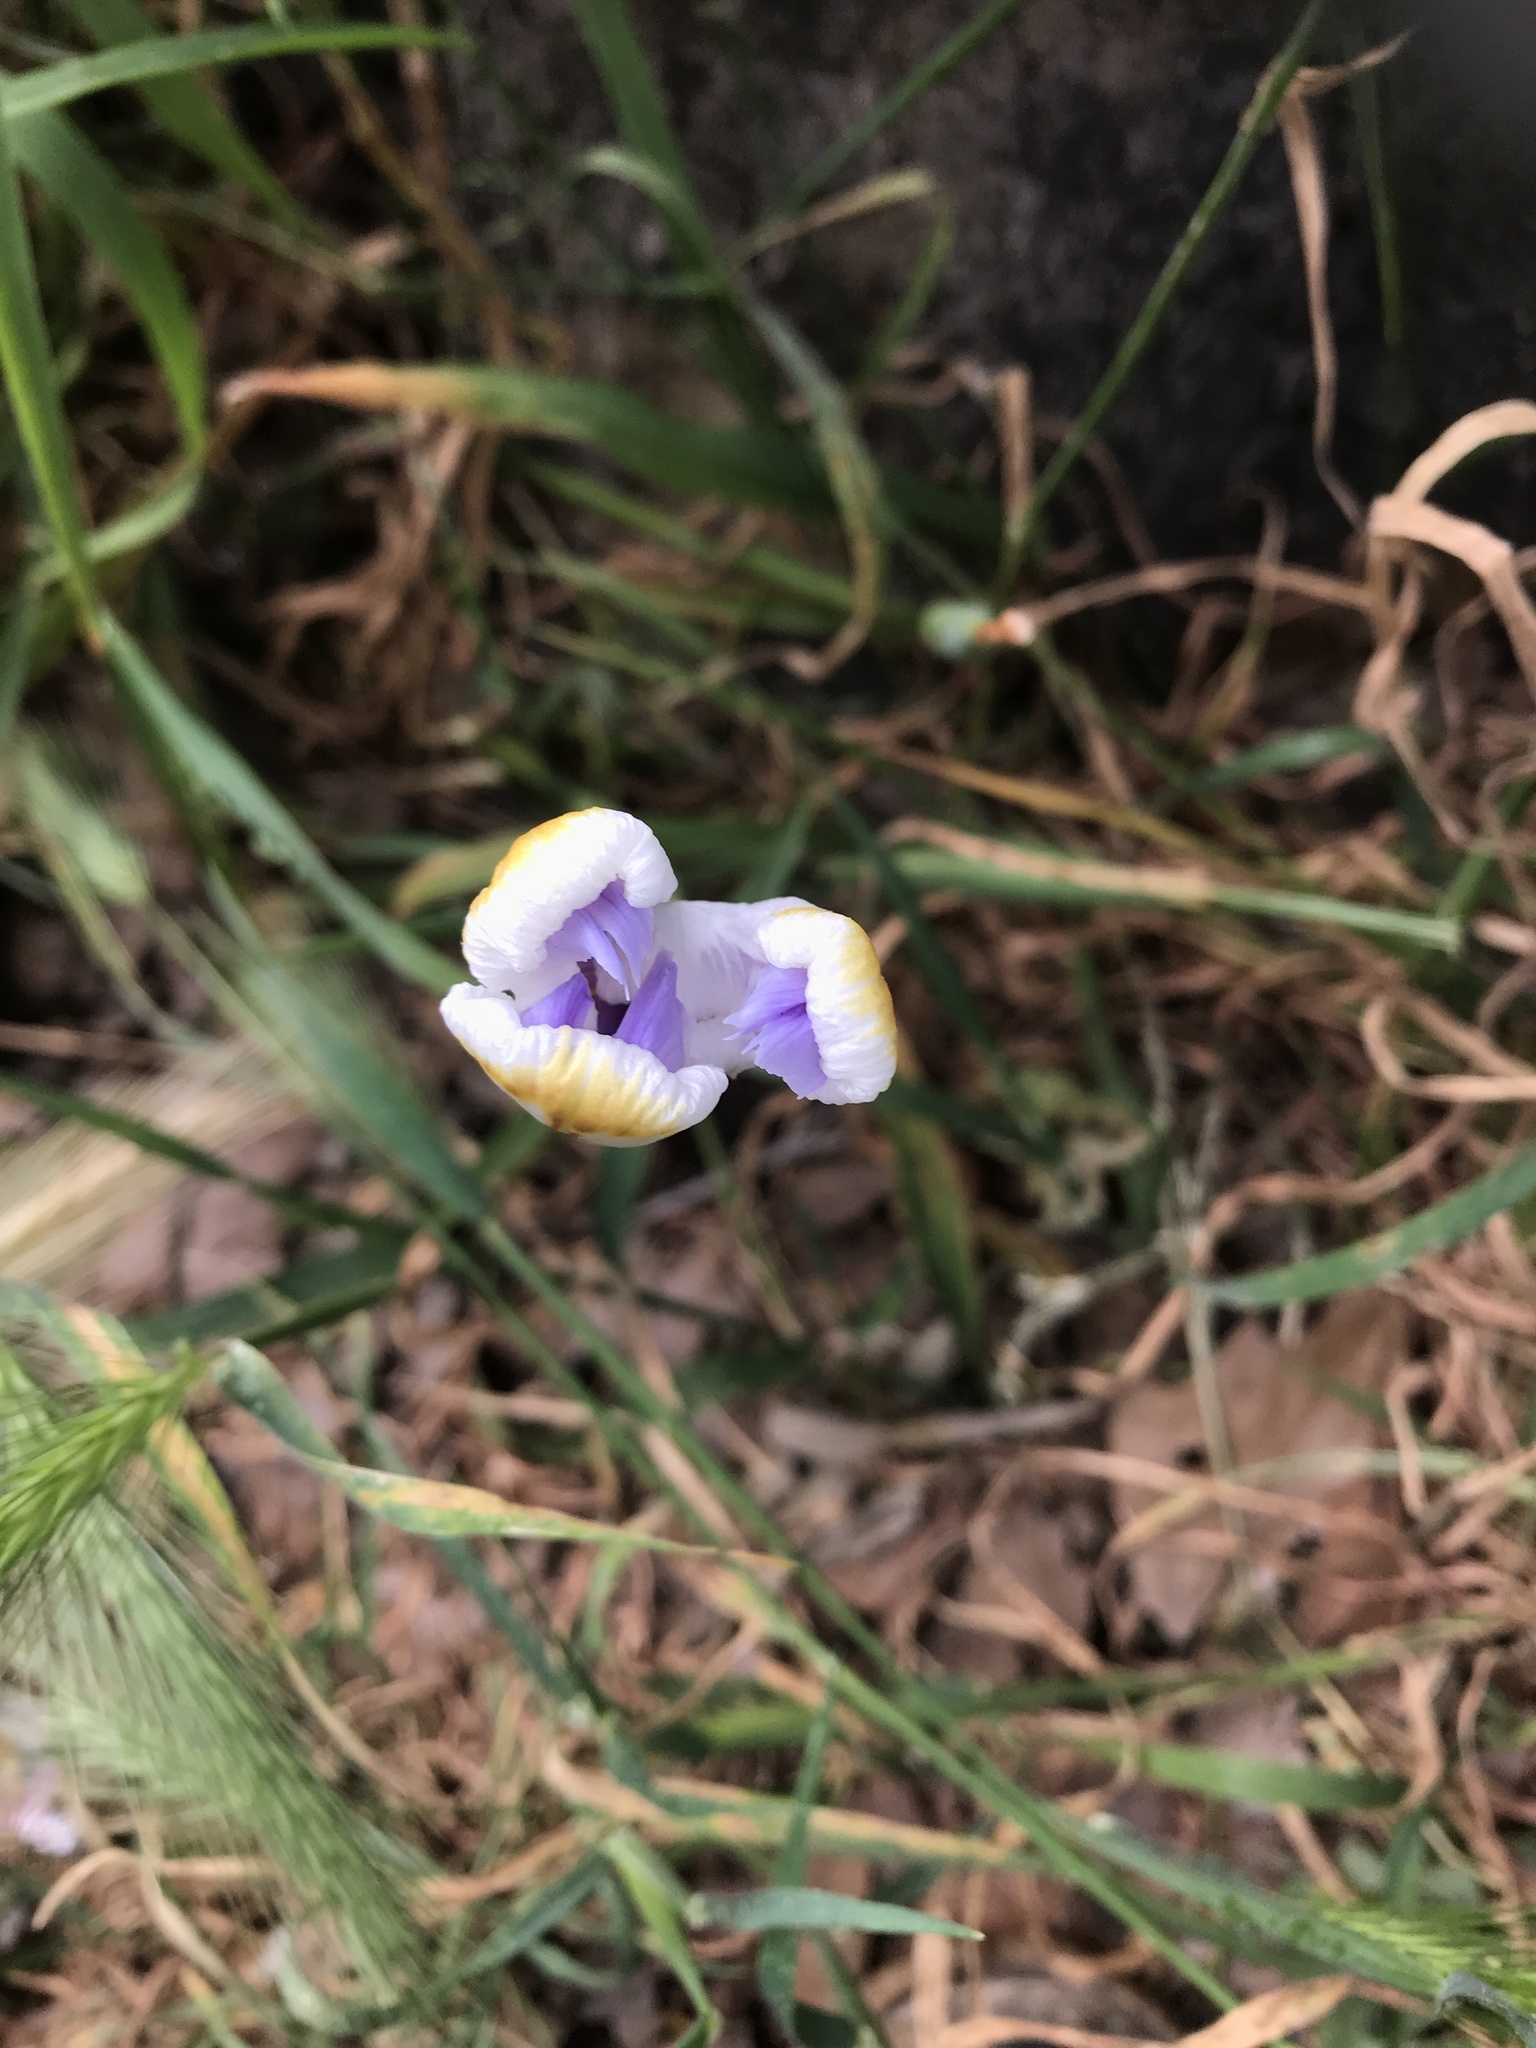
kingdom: Plantae
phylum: Tracheophyta
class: Liliopsida
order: Asparagales
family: Iridaceae
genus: Dietes
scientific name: Dietes grandiflora
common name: Wild iris
